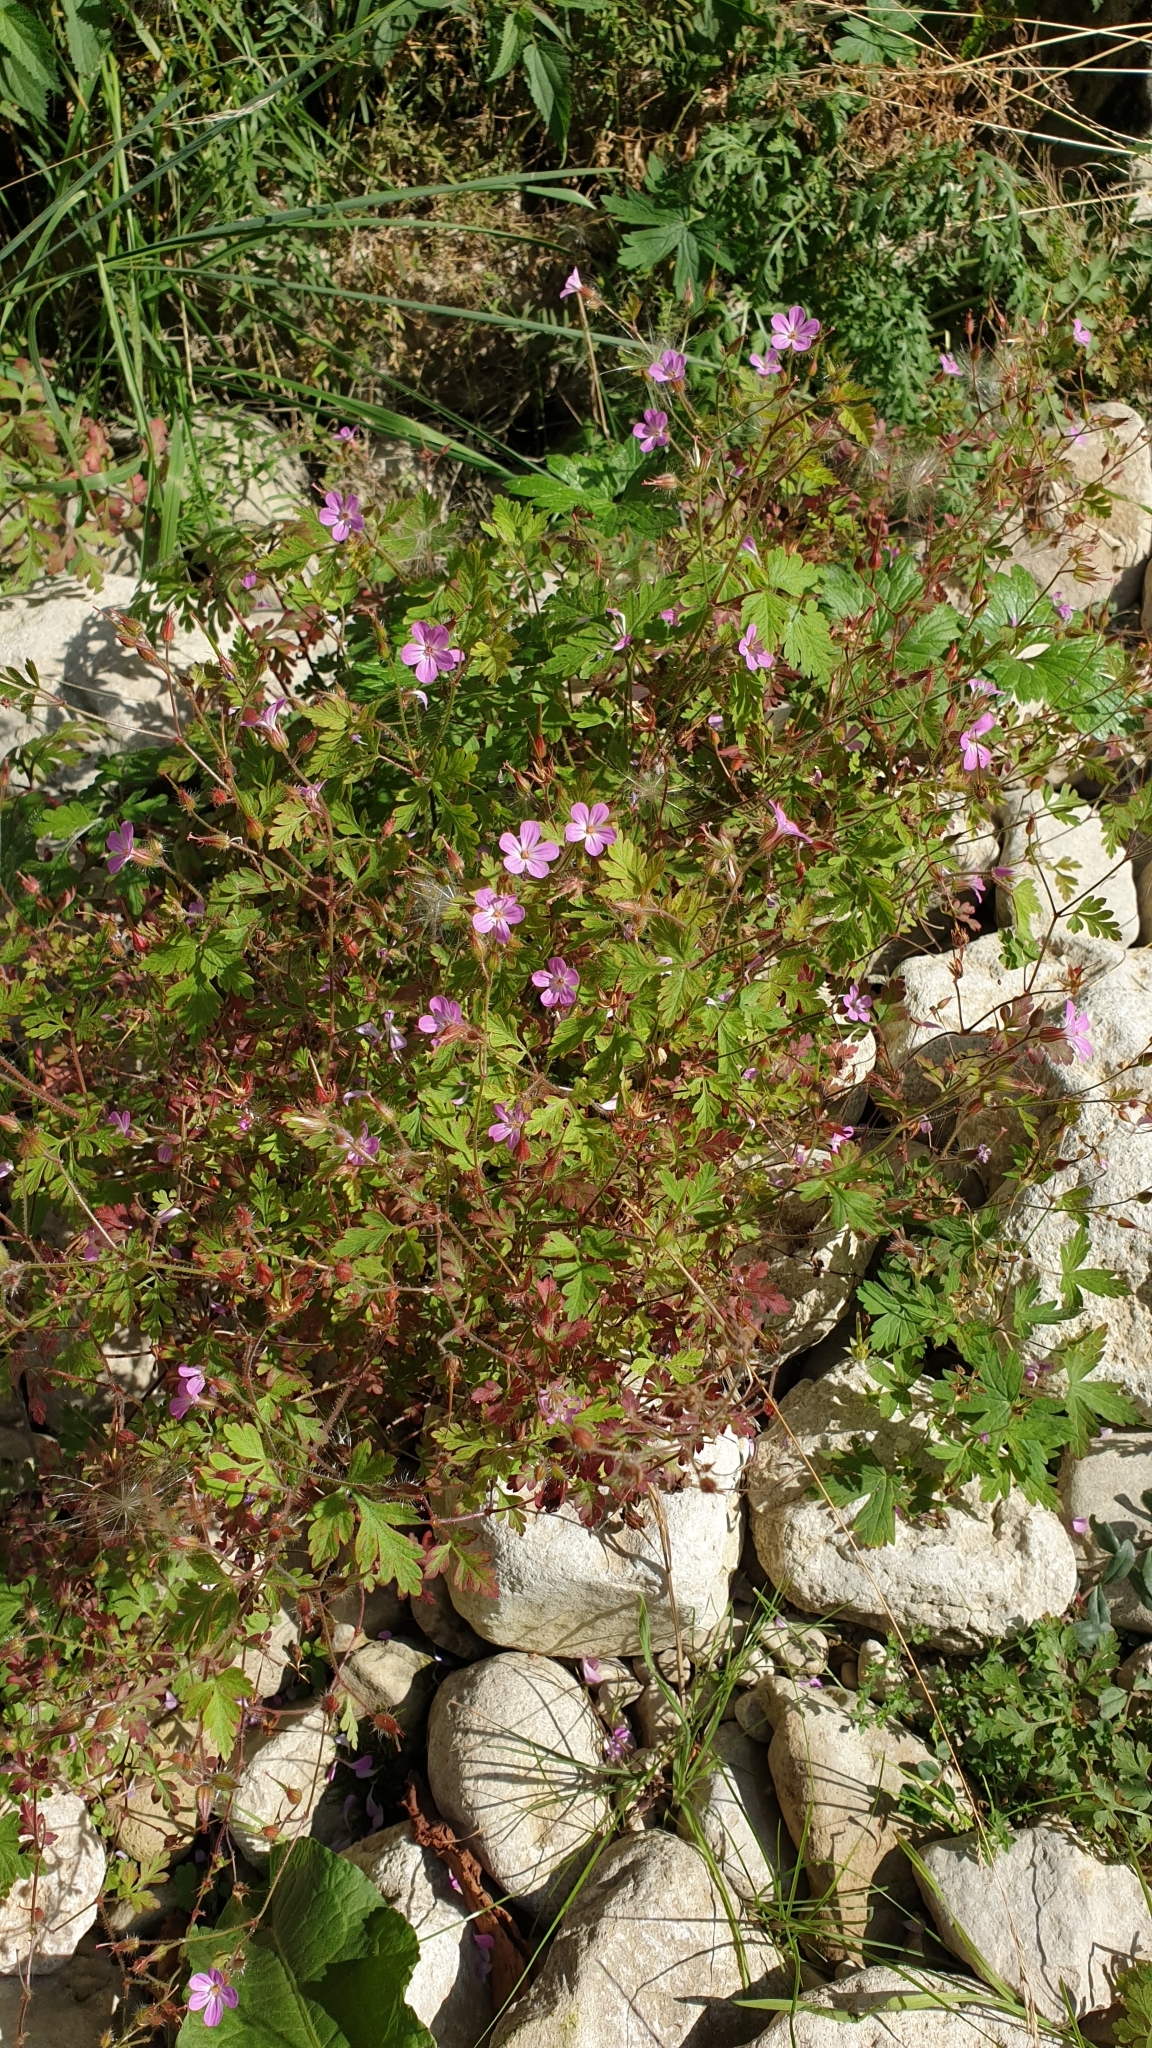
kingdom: Plantae
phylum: Tracheophyta
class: Magnoliopsida
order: Geraniales
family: Geraniaceae
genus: Geranium
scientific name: Geranium robertianum
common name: Herb-robert
